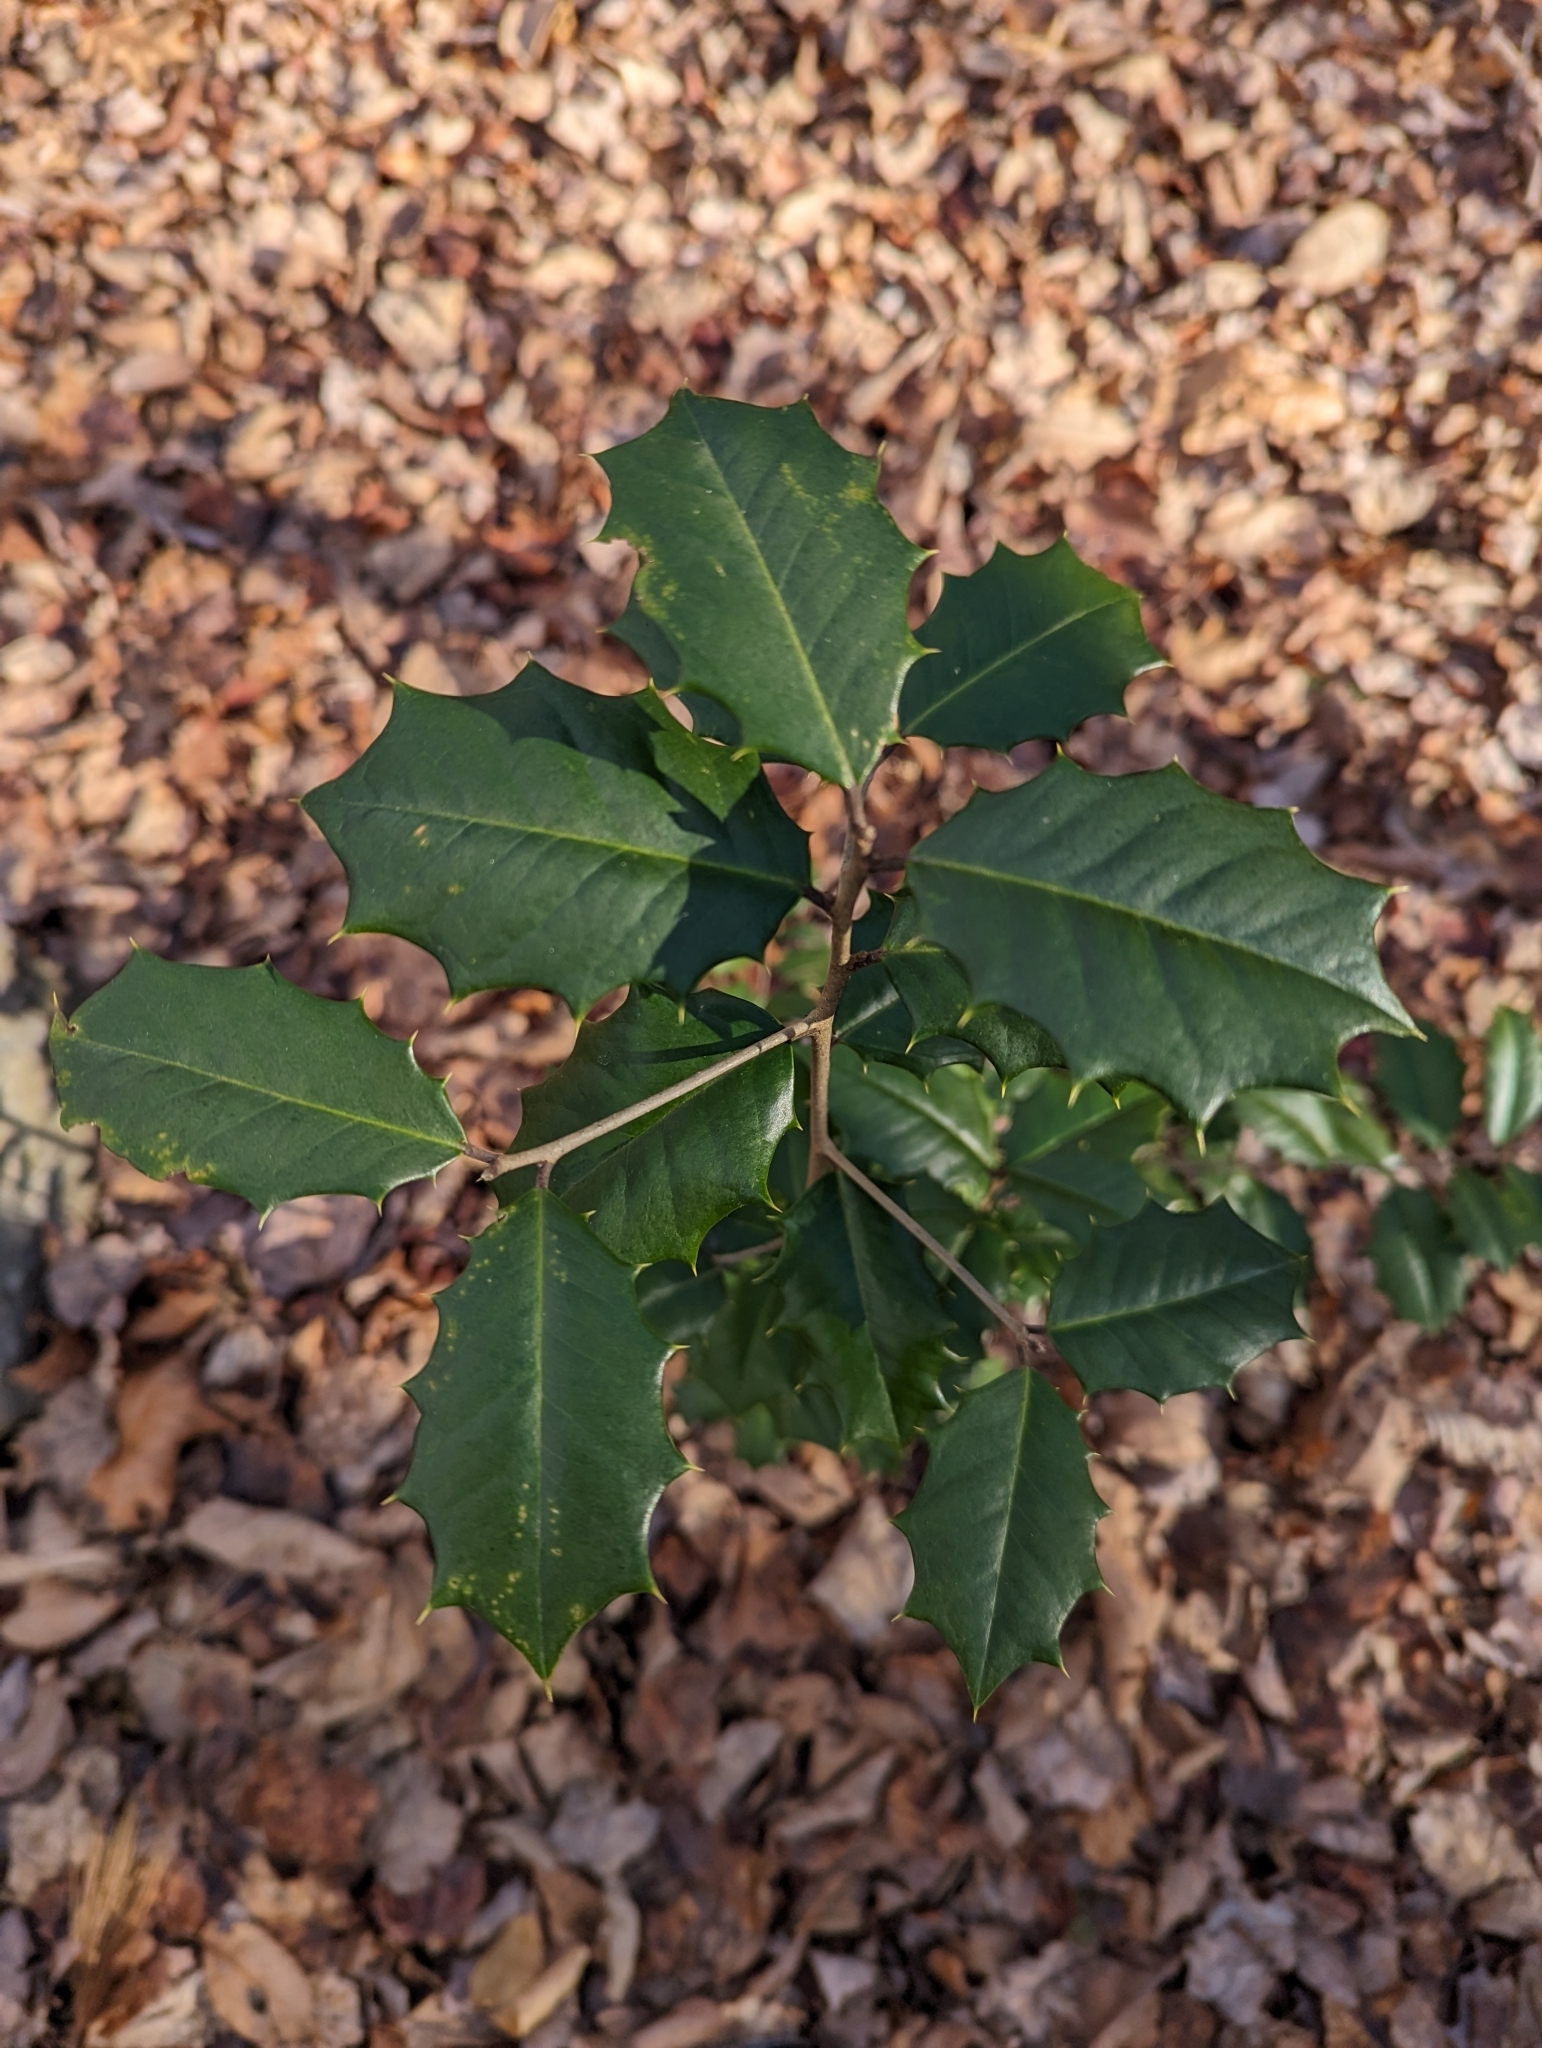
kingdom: Plantae
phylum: Tracheophyta
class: Magnoliopsida
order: Aquifoliales
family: Aquifoliaceae
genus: Ilex
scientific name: Ilex opaca
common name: American holly
